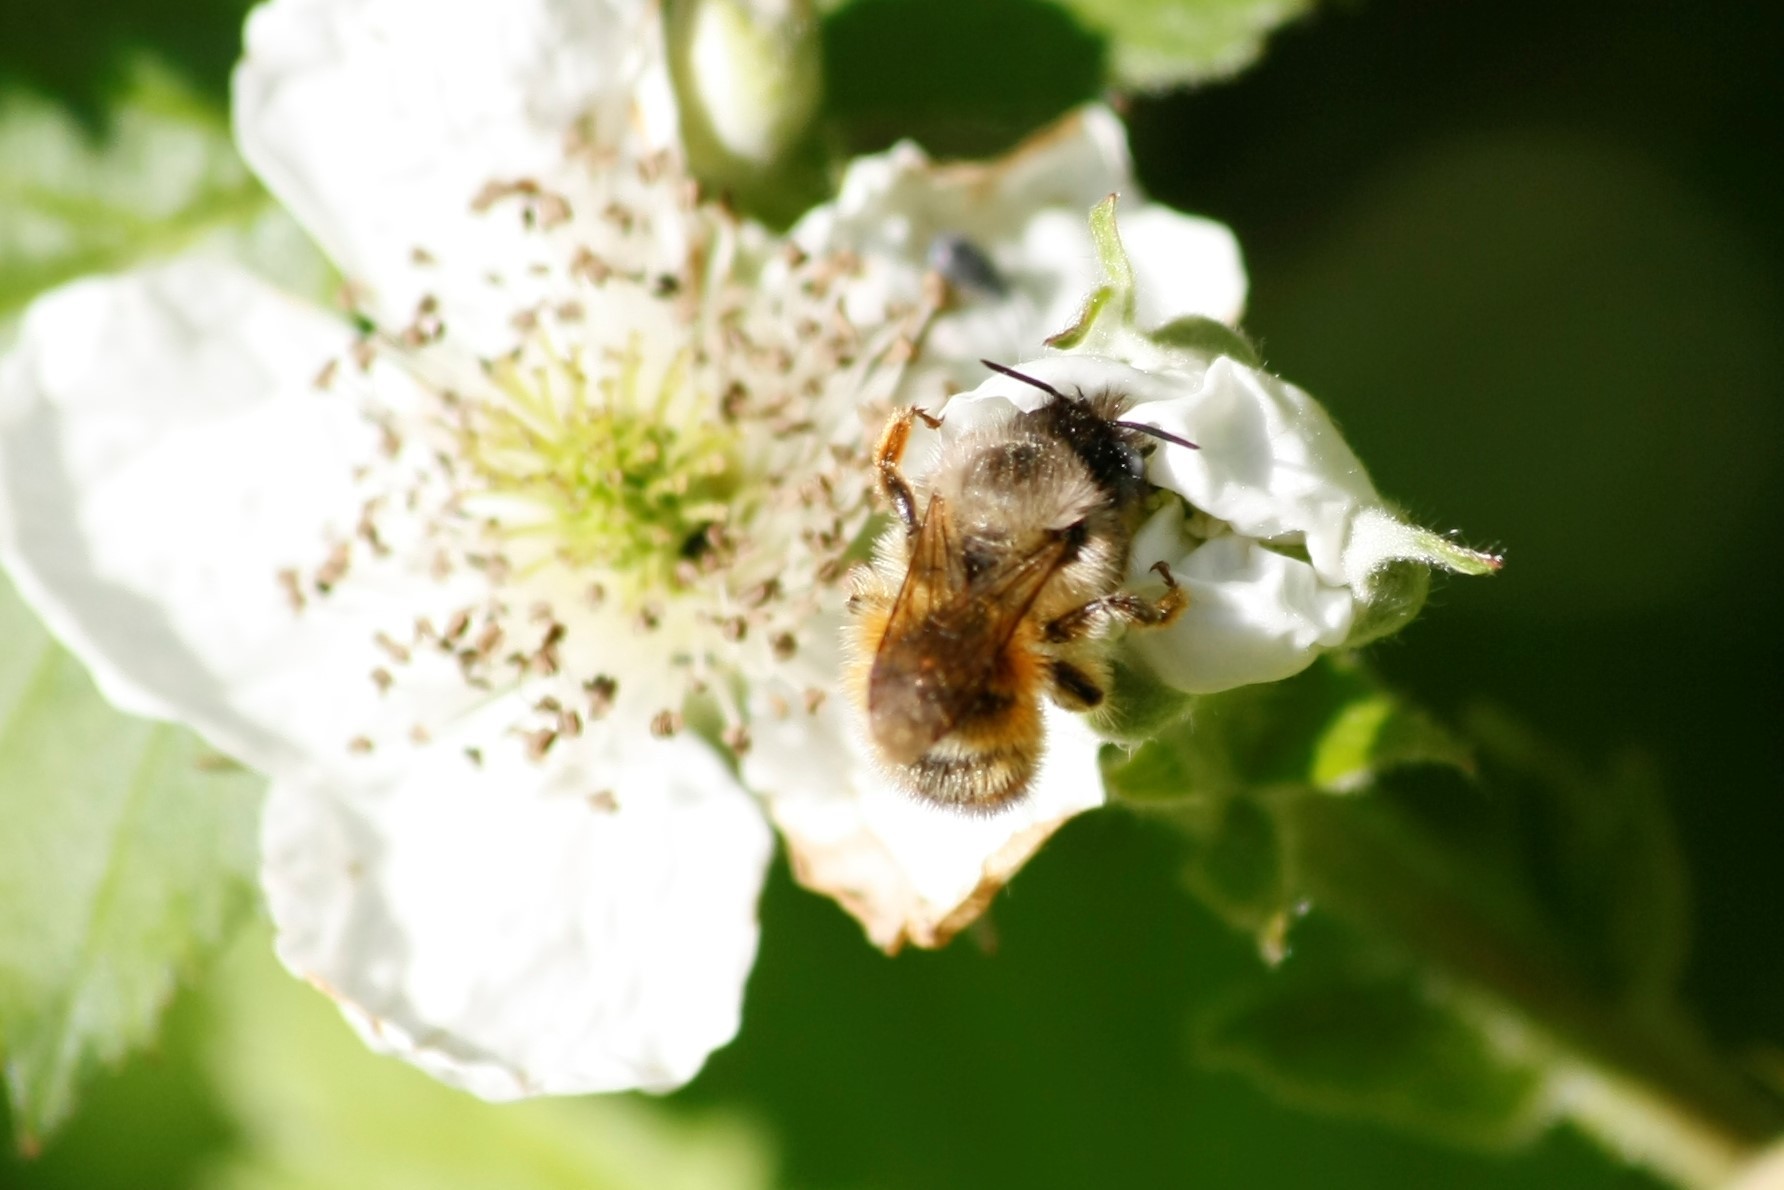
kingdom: Animalia
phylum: Arthropoda
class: Insecta
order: Hymenoptera
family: Megachilidae
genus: Osmia
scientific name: Osmia bicornis
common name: Red mason bee
